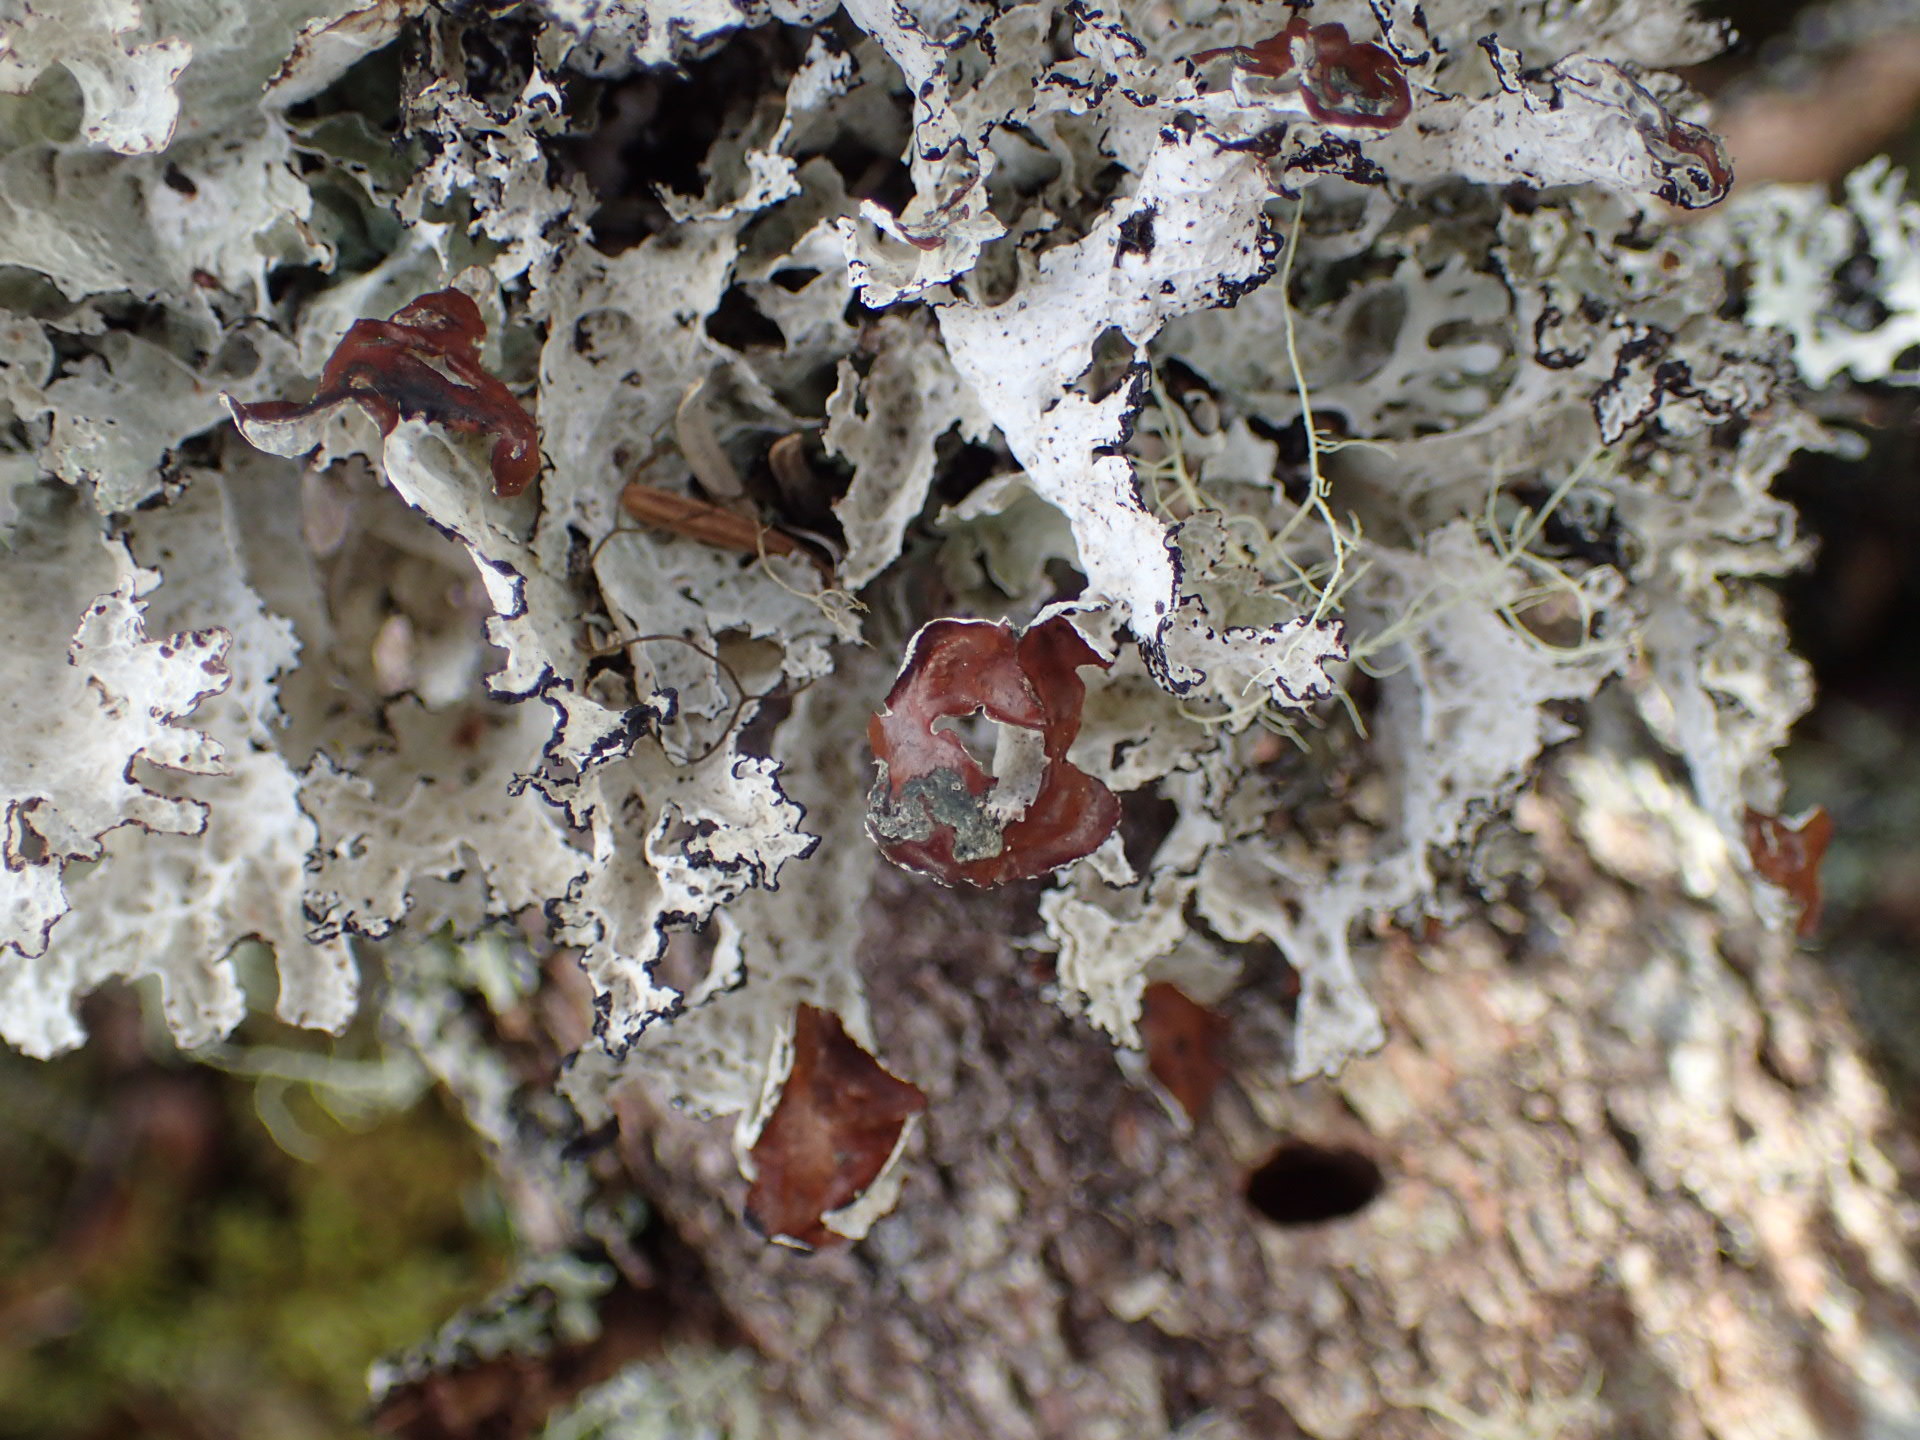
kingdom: Fungi
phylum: Ascomycota
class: Lecanoromycetes
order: Lecanorales
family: Parmeliaceae
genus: Platismatia
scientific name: Platismatia tuckermanii
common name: Crumpled rag lichen
